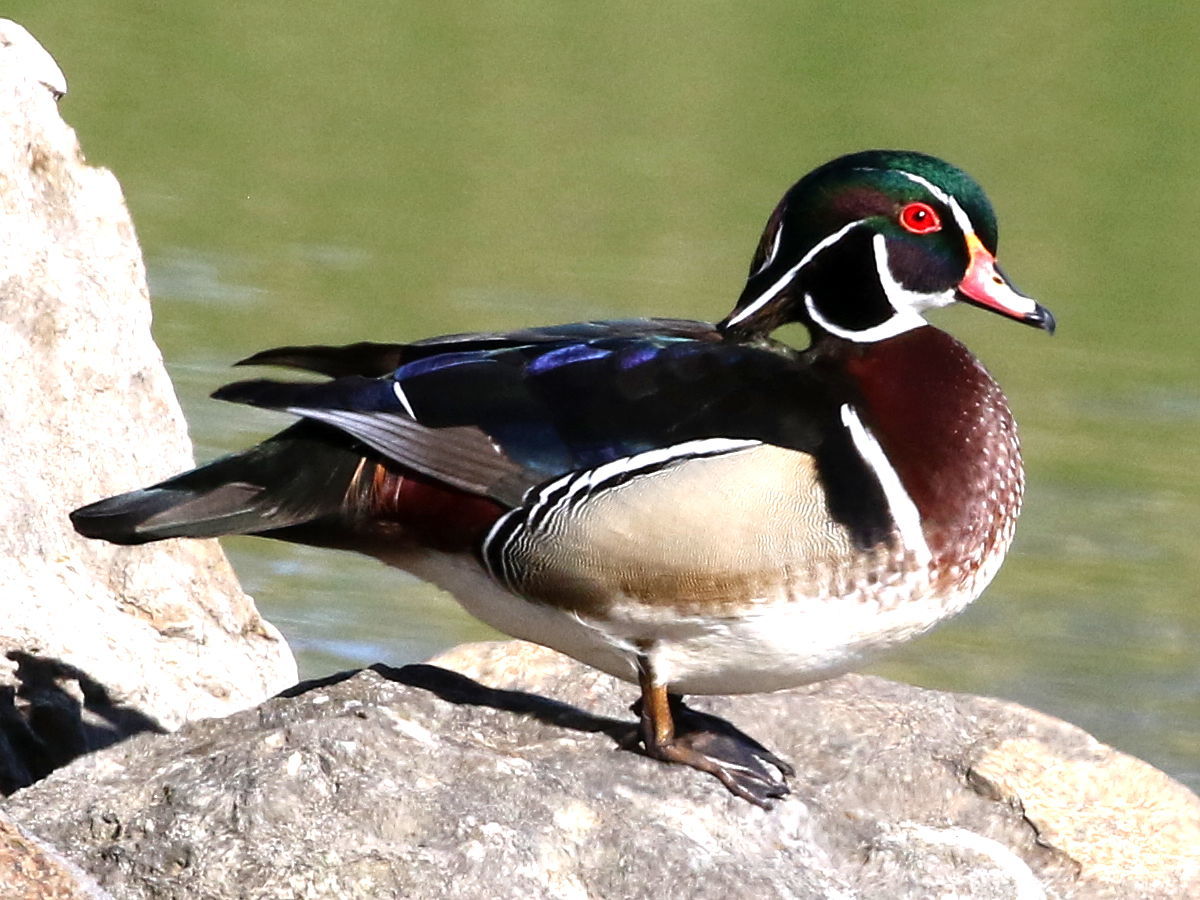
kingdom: Animalia
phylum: Chordata
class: Aves
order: Anseriformes
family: Anatidae
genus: Aix
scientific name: Aix sponsa
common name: Wood duck
